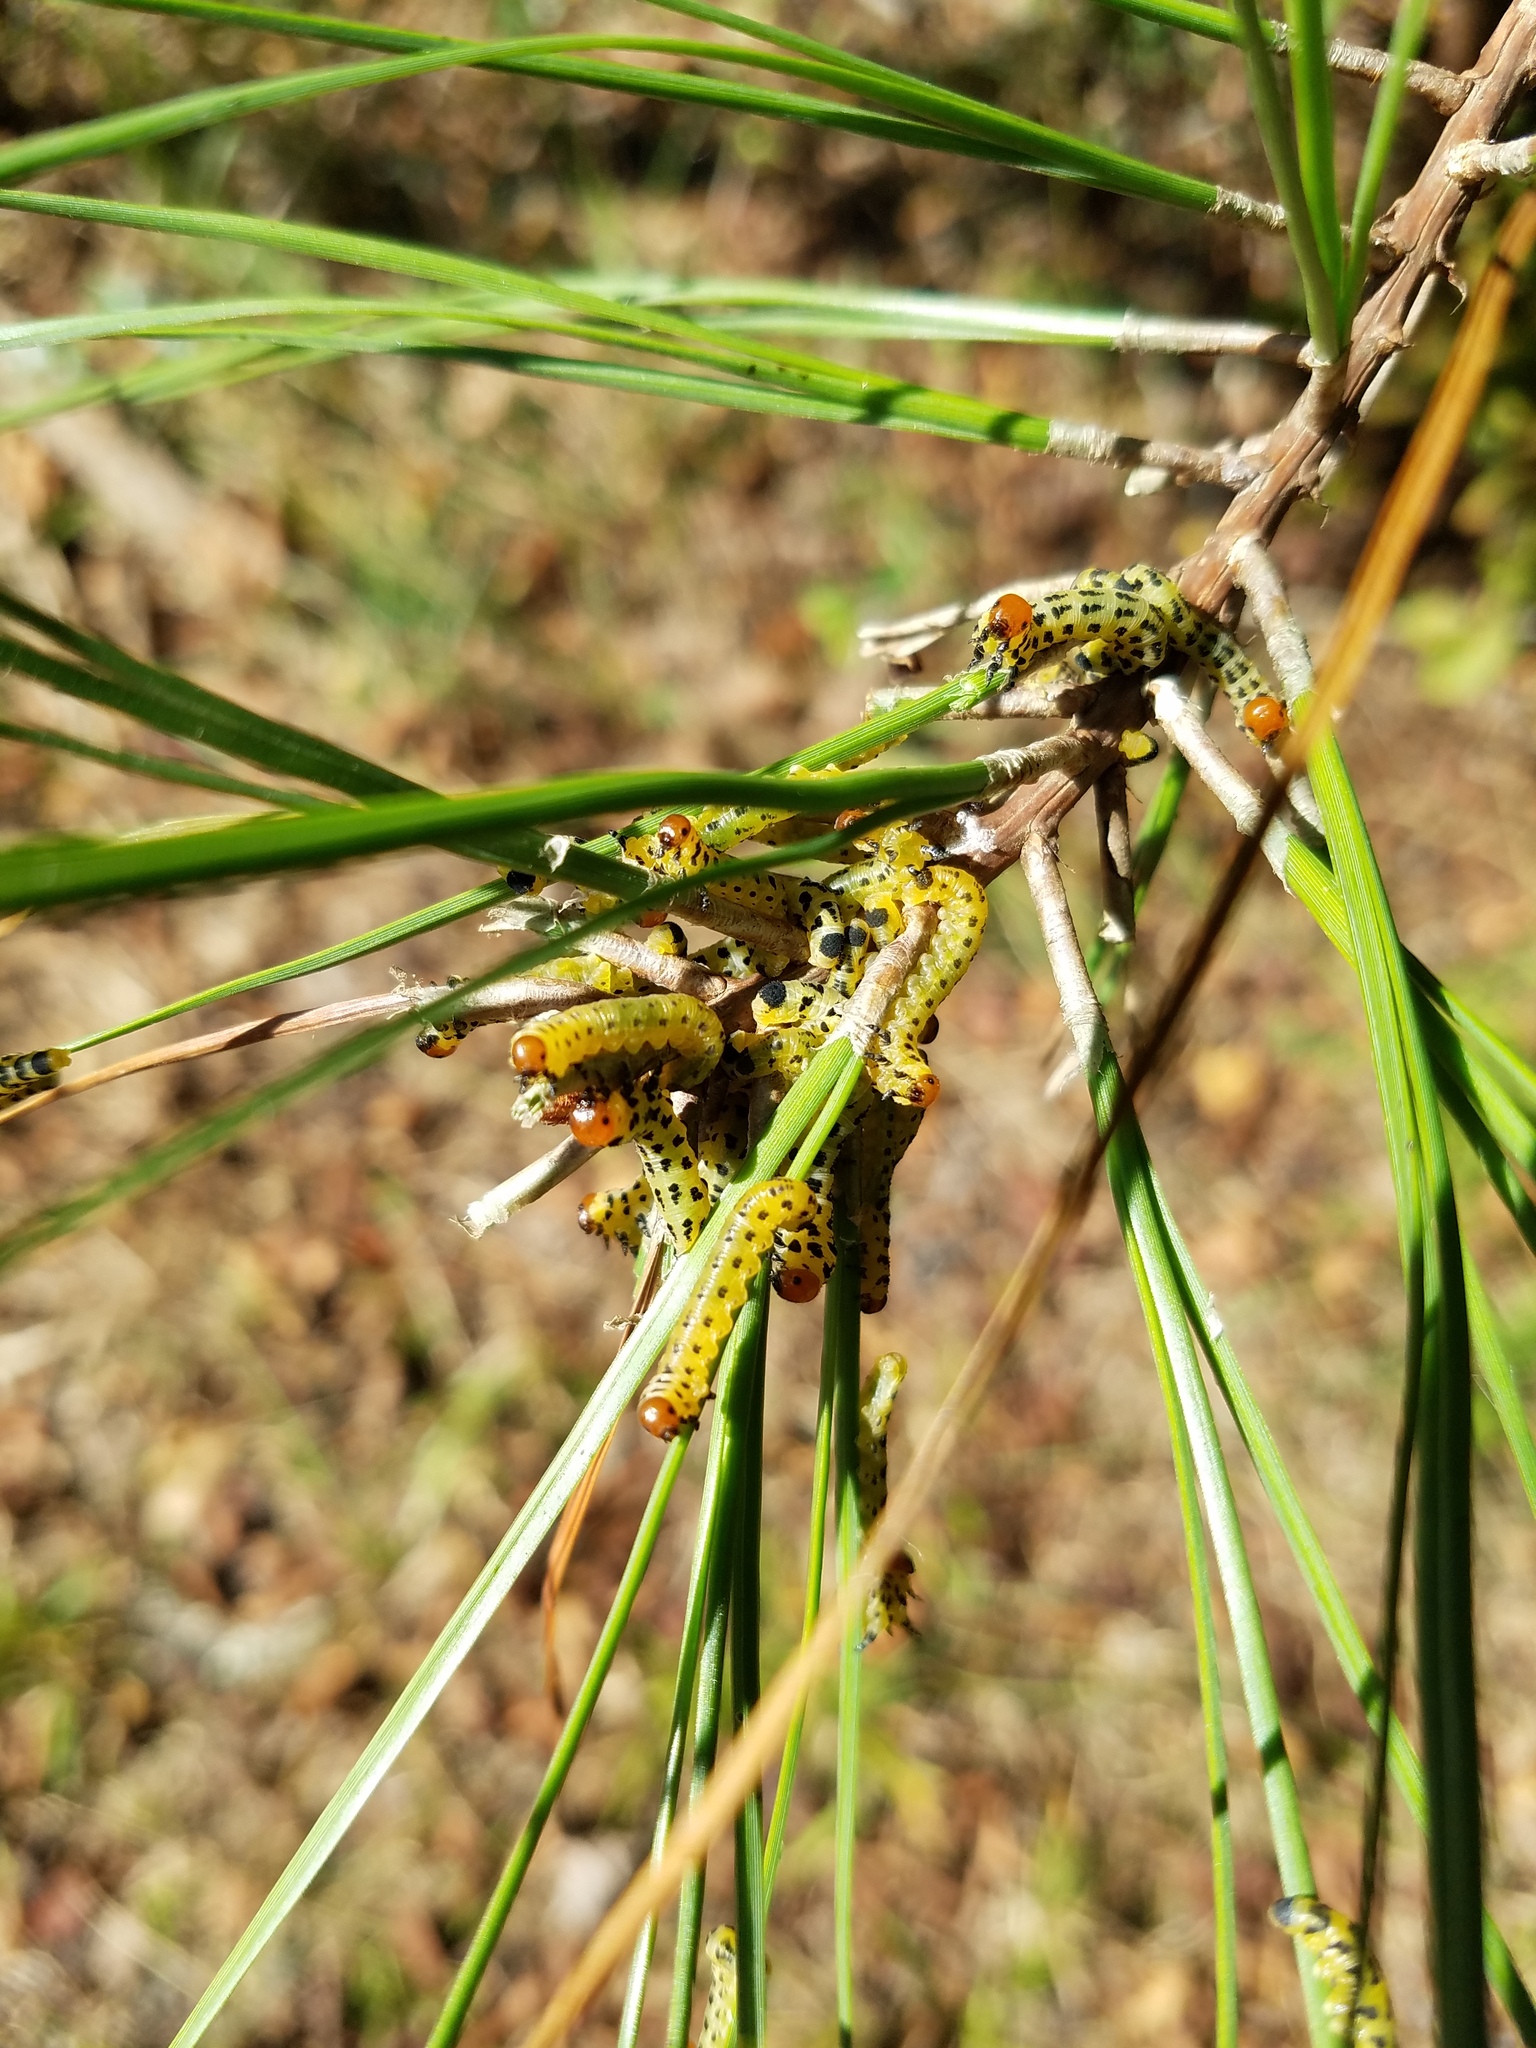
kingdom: Animalia
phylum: Arthropoda
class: Insecta
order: Hymenoptera
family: Diprionidae
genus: Neodiprion
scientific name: Neodiprion lecontei
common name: Redheaded pine sawfly
